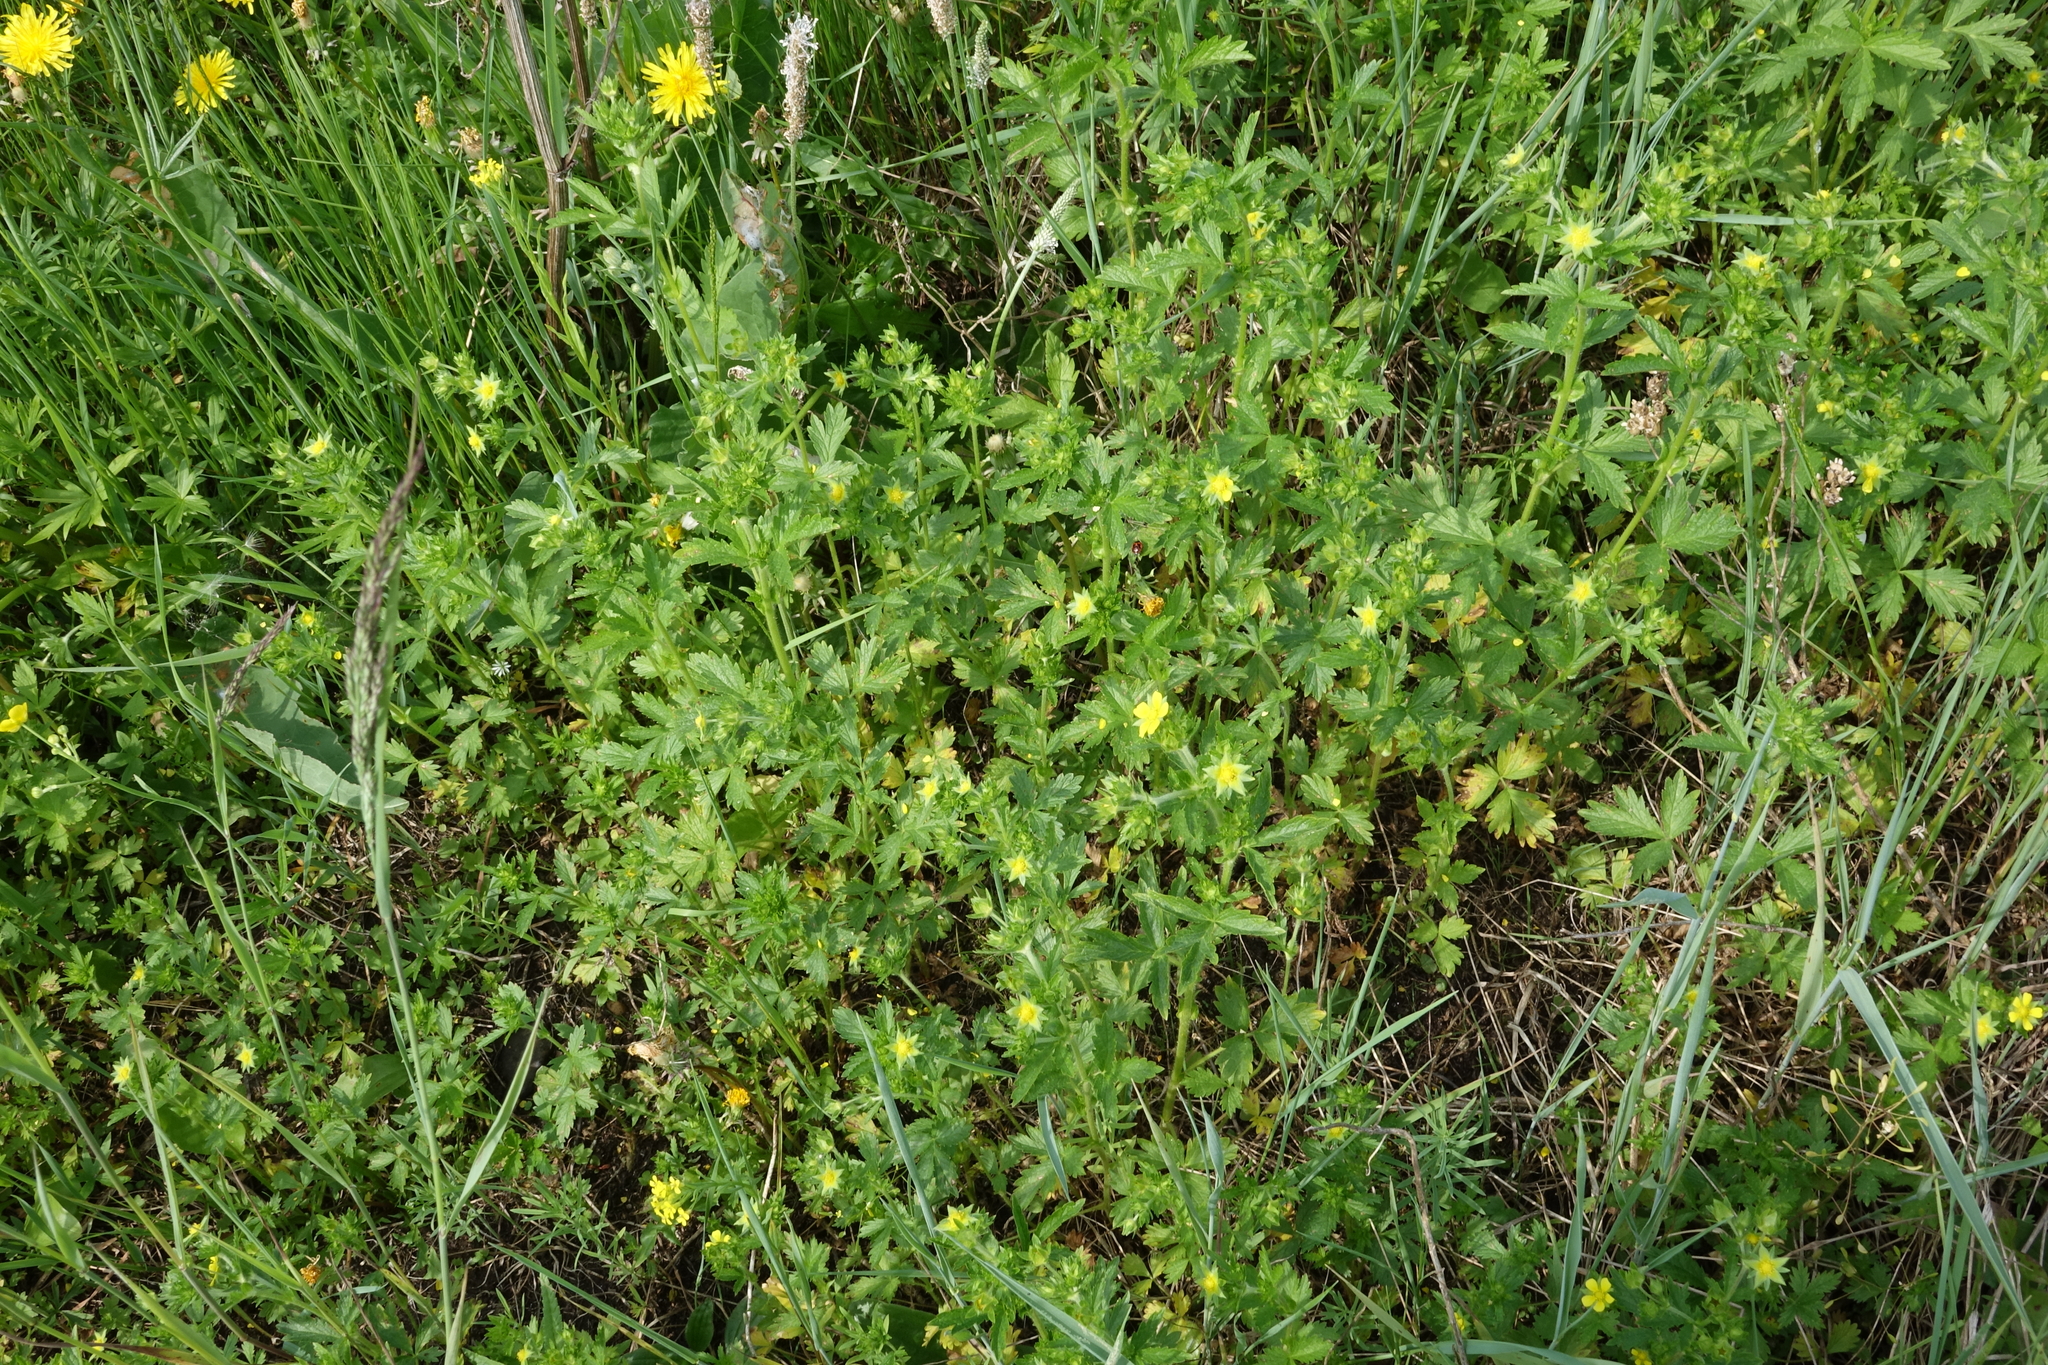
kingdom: Plantae
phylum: Tracheophyta
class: Magnoliopsida
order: Rosales
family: Rosaceae
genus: Potentilla
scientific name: Potentilla norvegica
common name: Ternate-leaved cinquefoil
